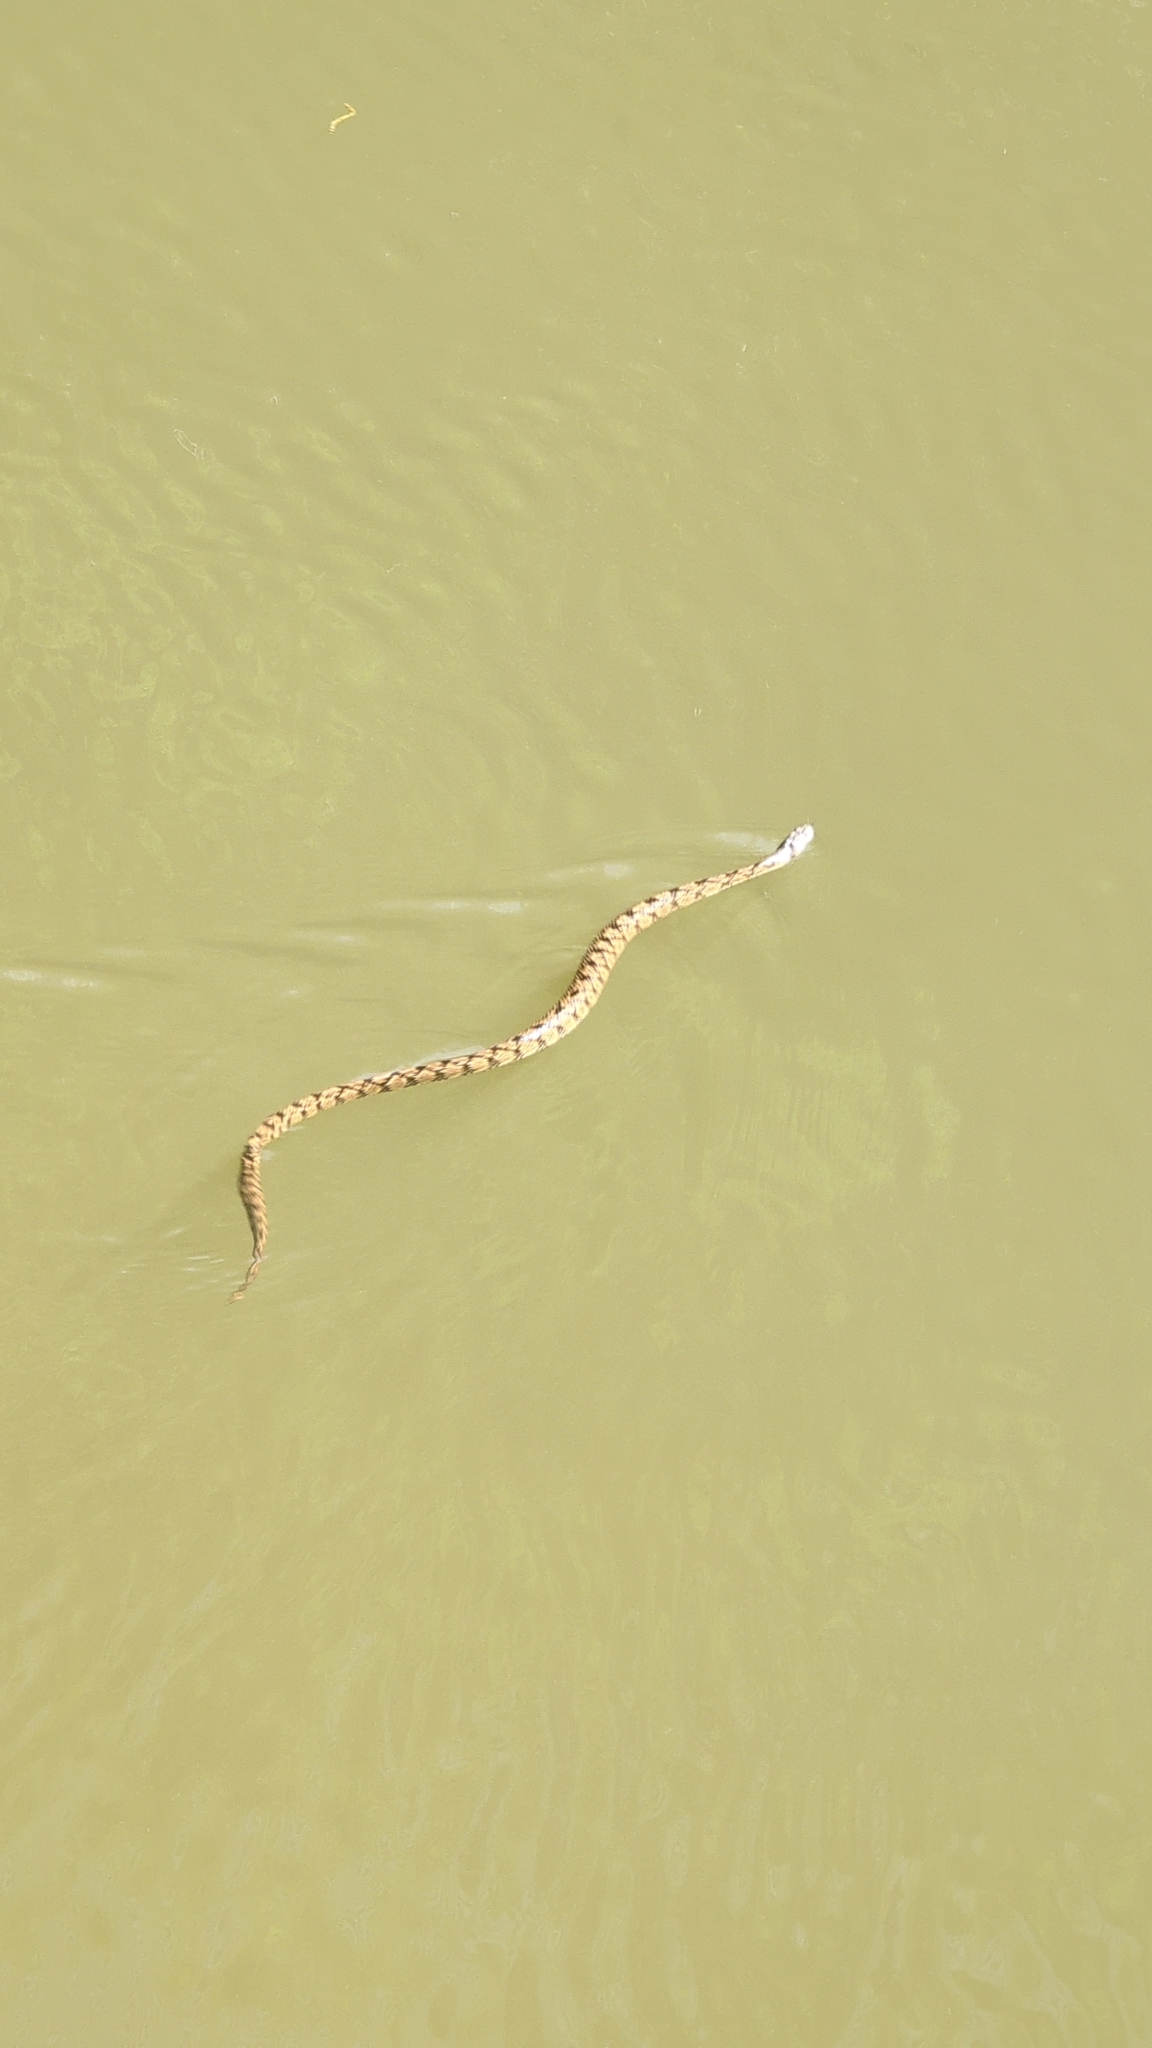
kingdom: Animalia
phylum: Chordata
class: Squamata
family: Colubridae
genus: Nerodia
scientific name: Nerodia rhombifer
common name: Diamondback water snake
